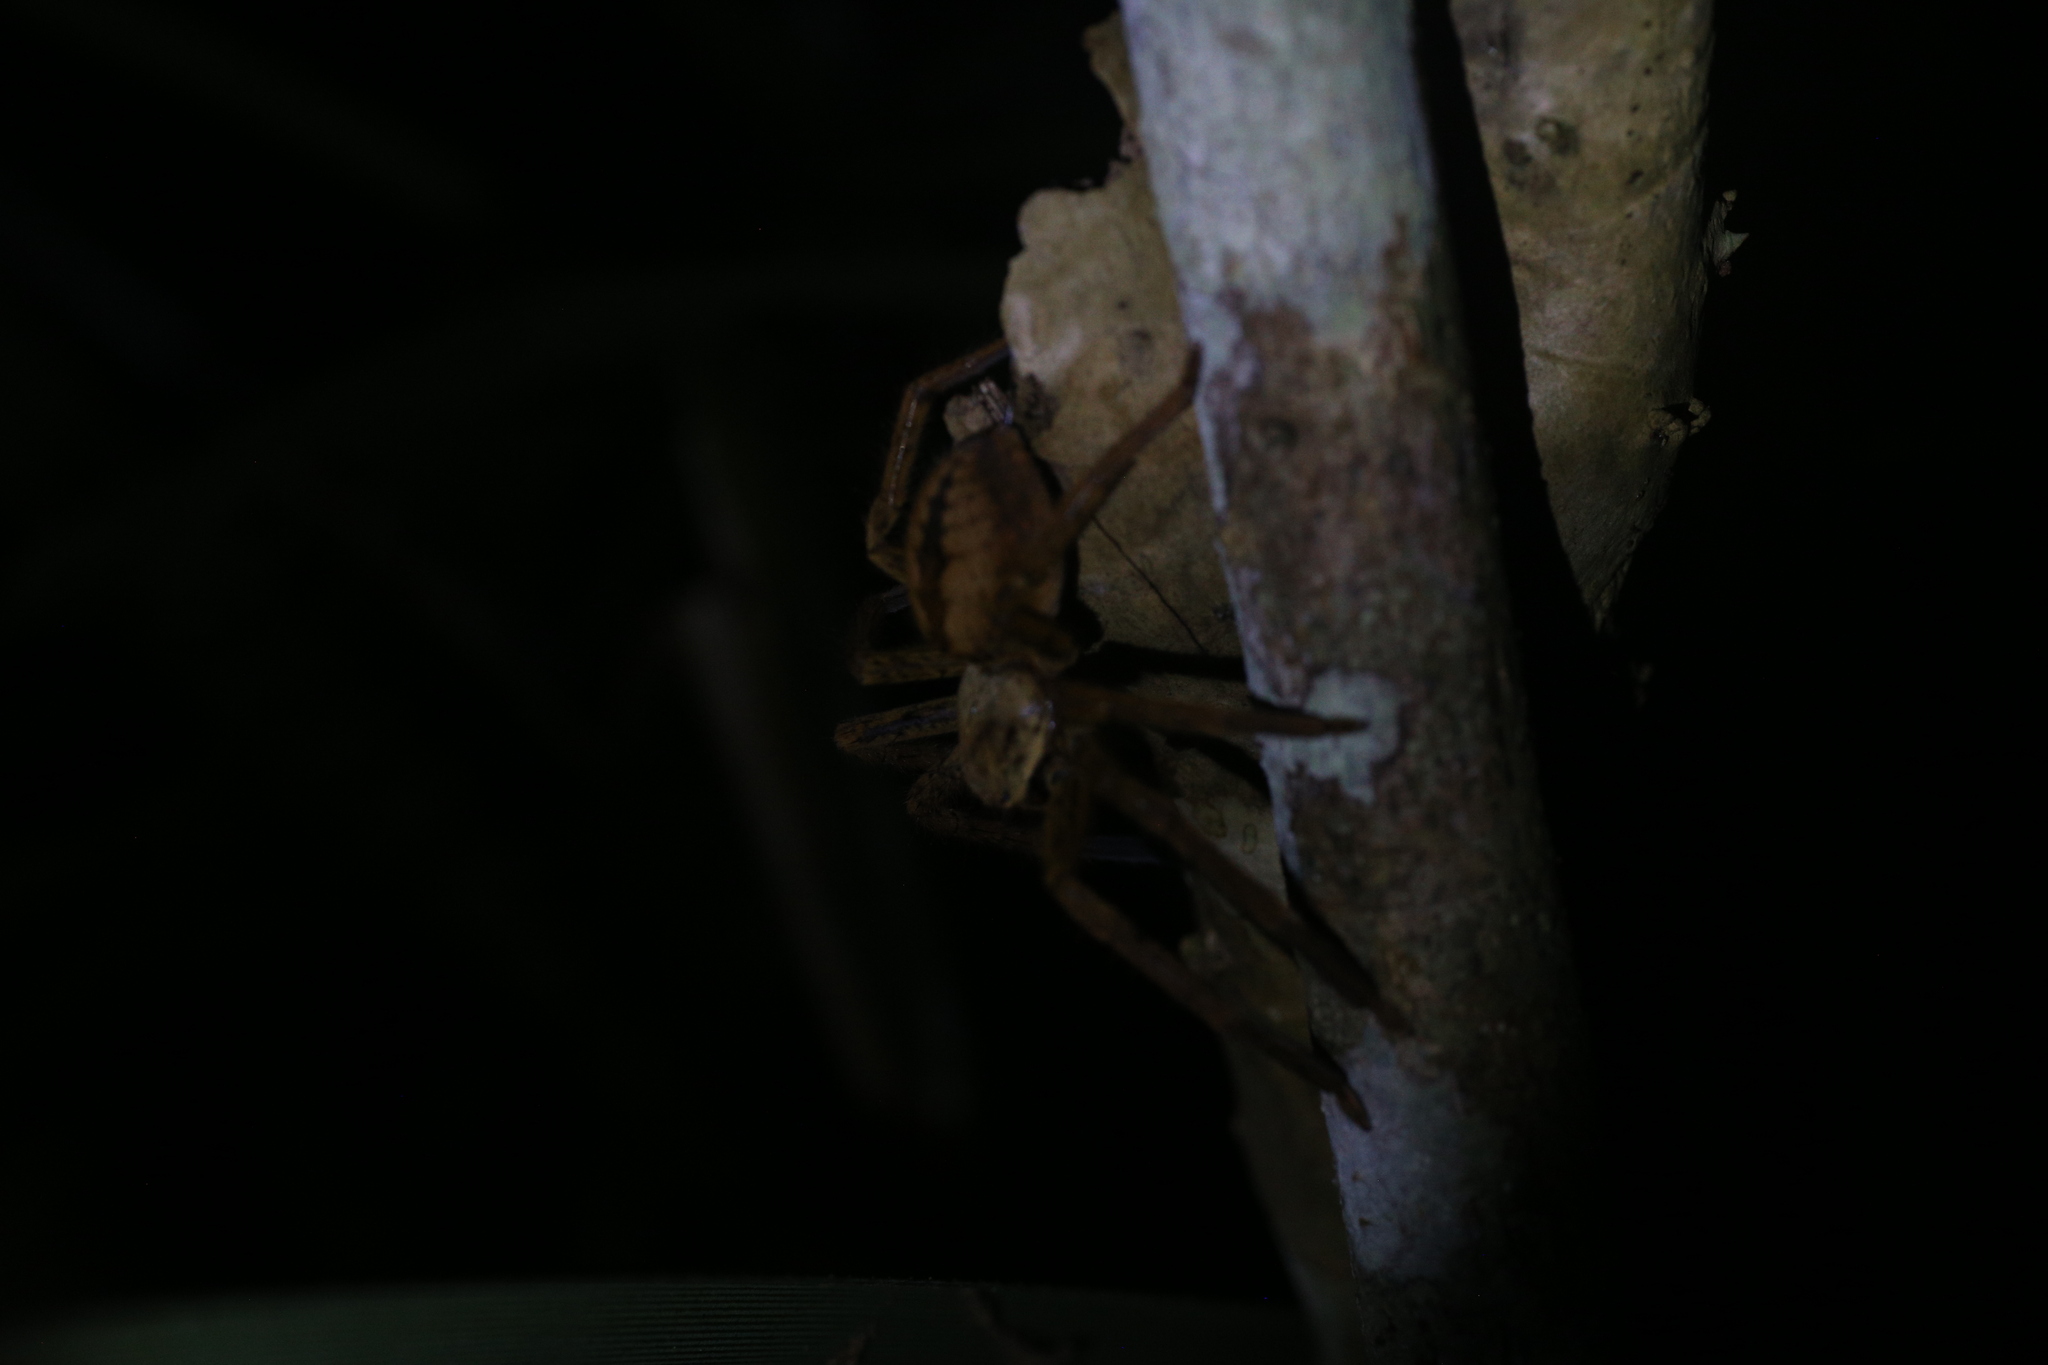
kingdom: Animalia
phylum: Arthropoda
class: Arachnida
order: Araneae
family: Sparassidae
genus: Beregama
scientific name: Beregama cordata
